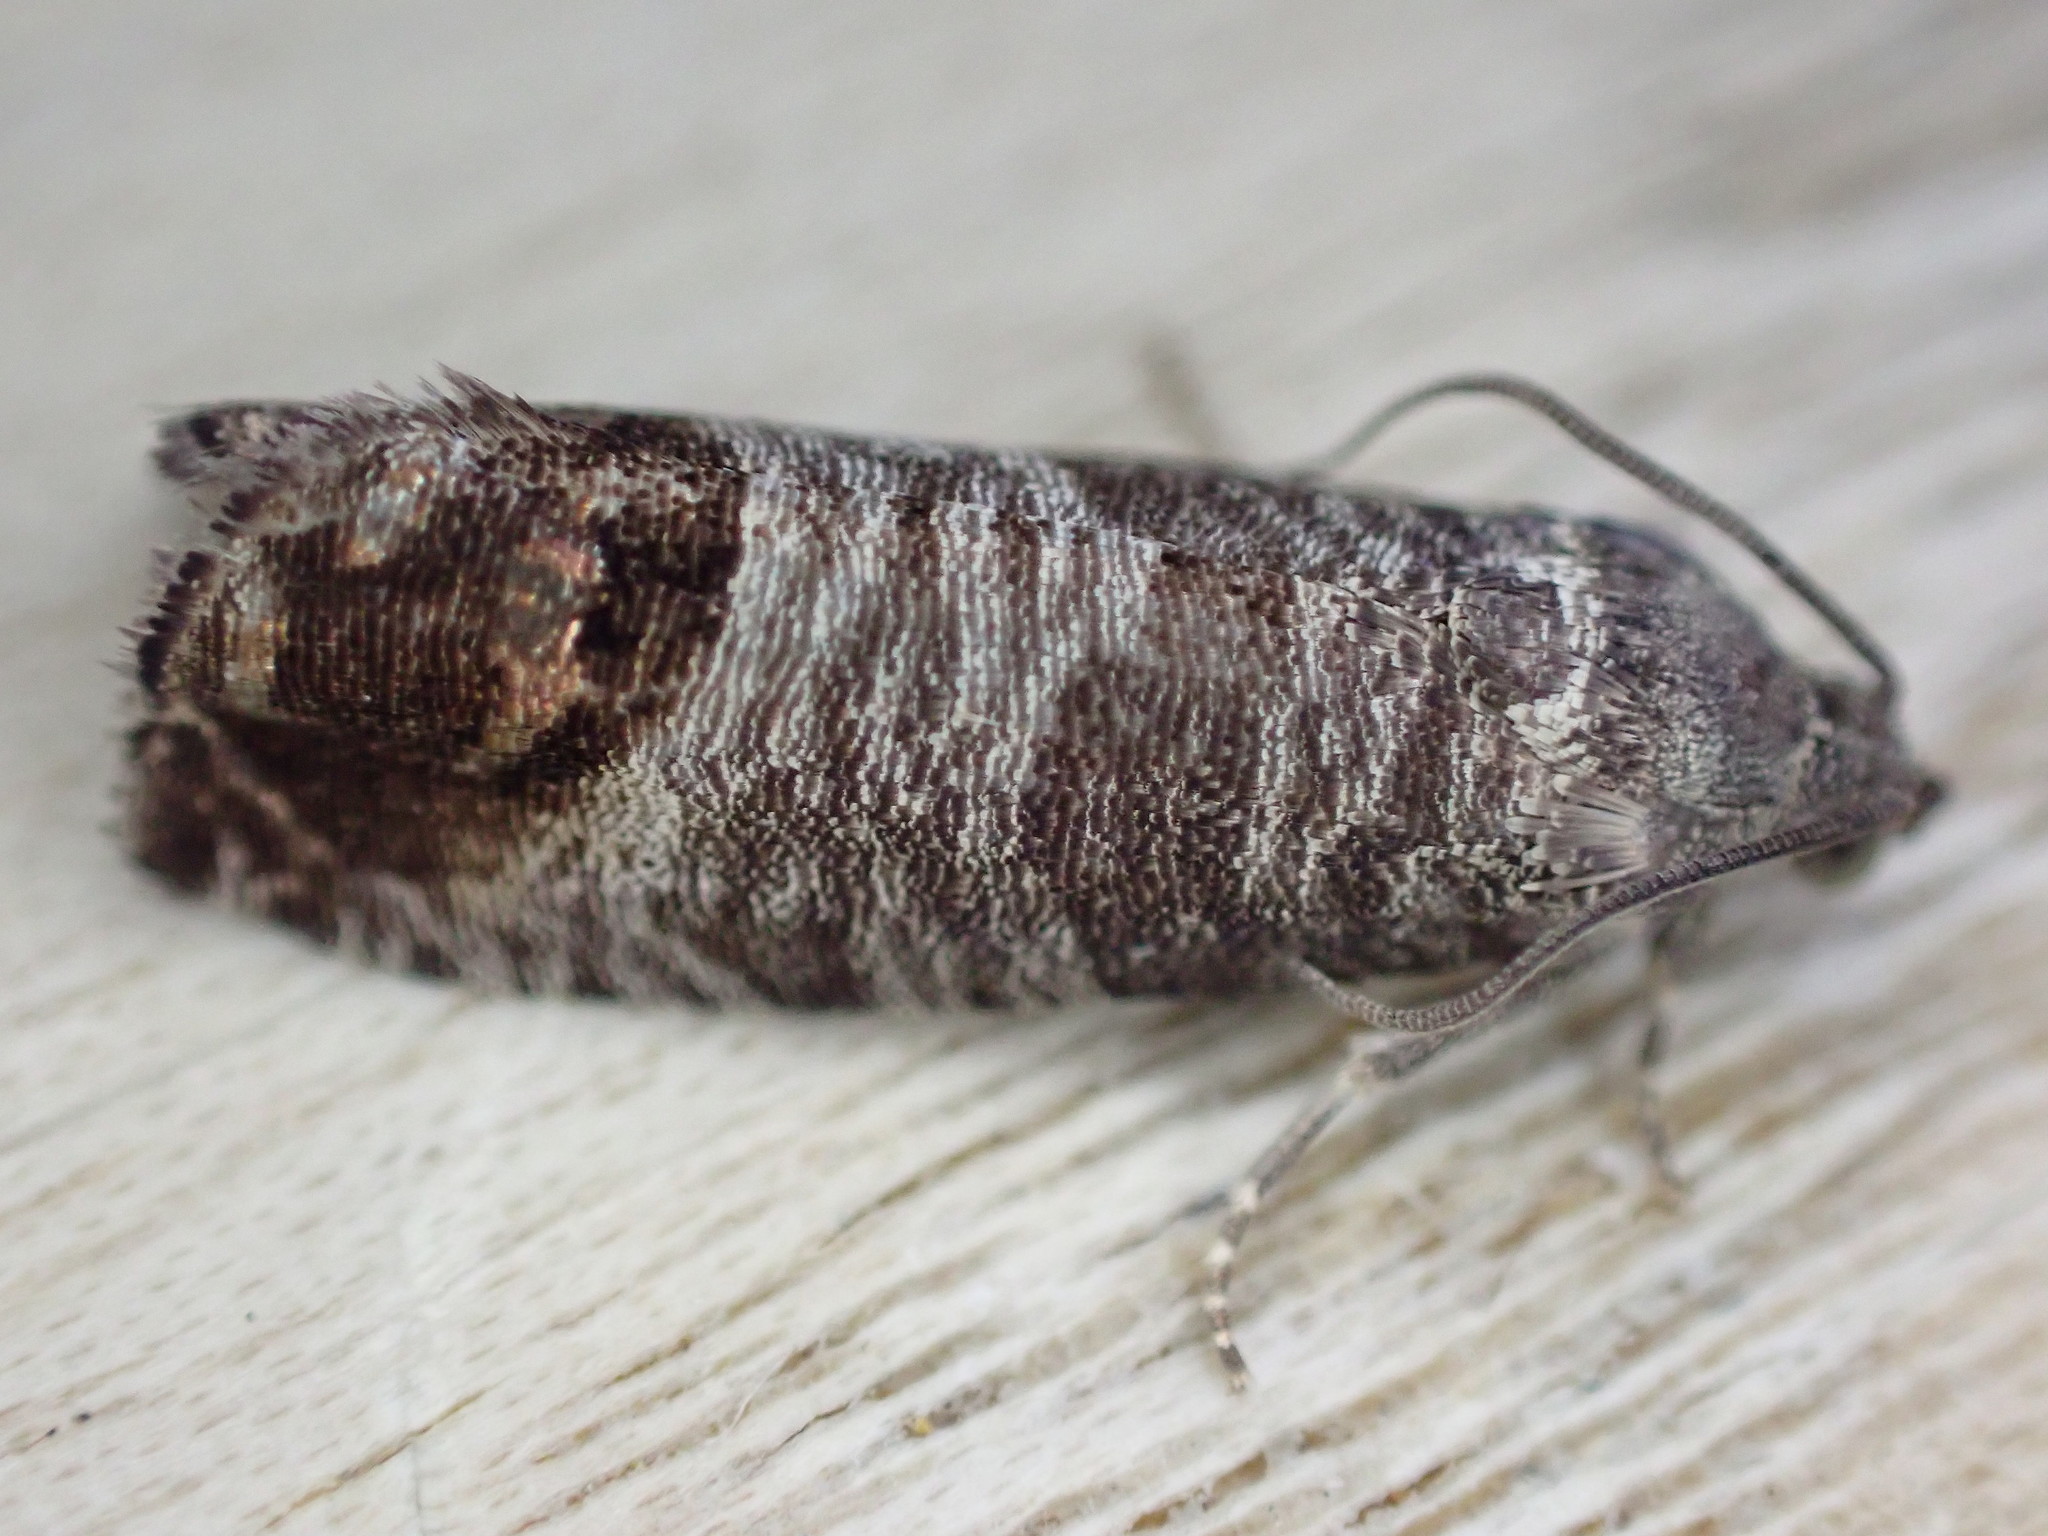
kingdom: Animalia
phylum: Arthropoda
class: Insecta
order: Lepidoptera
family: Tortricidae
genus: Cydia
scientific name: Cydia pomonella
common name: Codling moth
